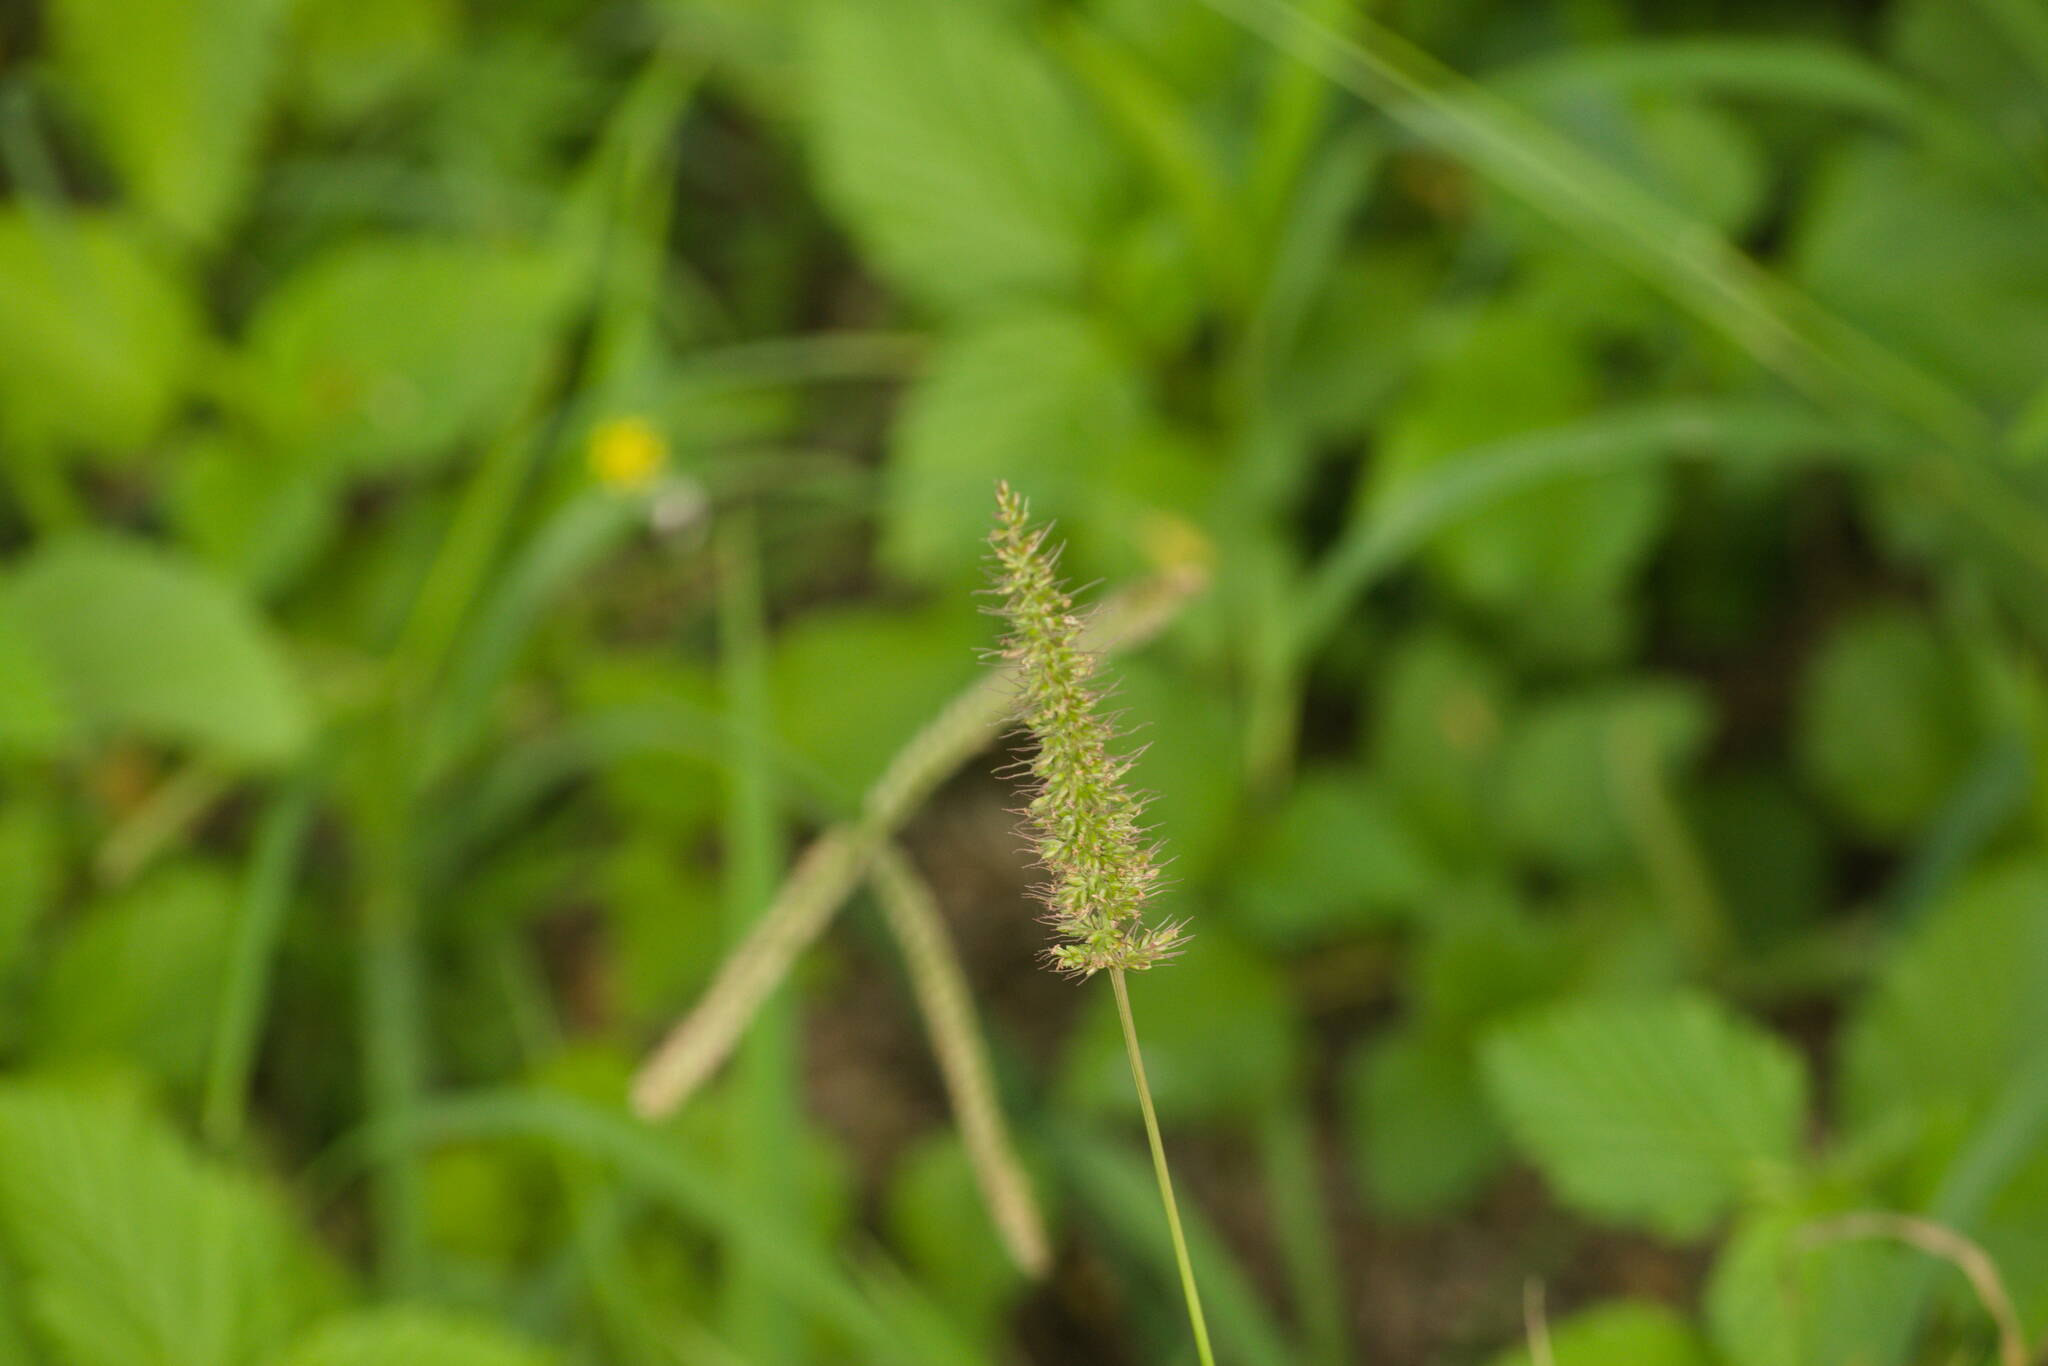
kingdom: Plantae
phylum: Tracheophyta
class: Liliopsida
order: Poales
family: Poaceae
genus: Setaria
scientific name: Setaria adhaerens
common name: Adherent bristle-grass
